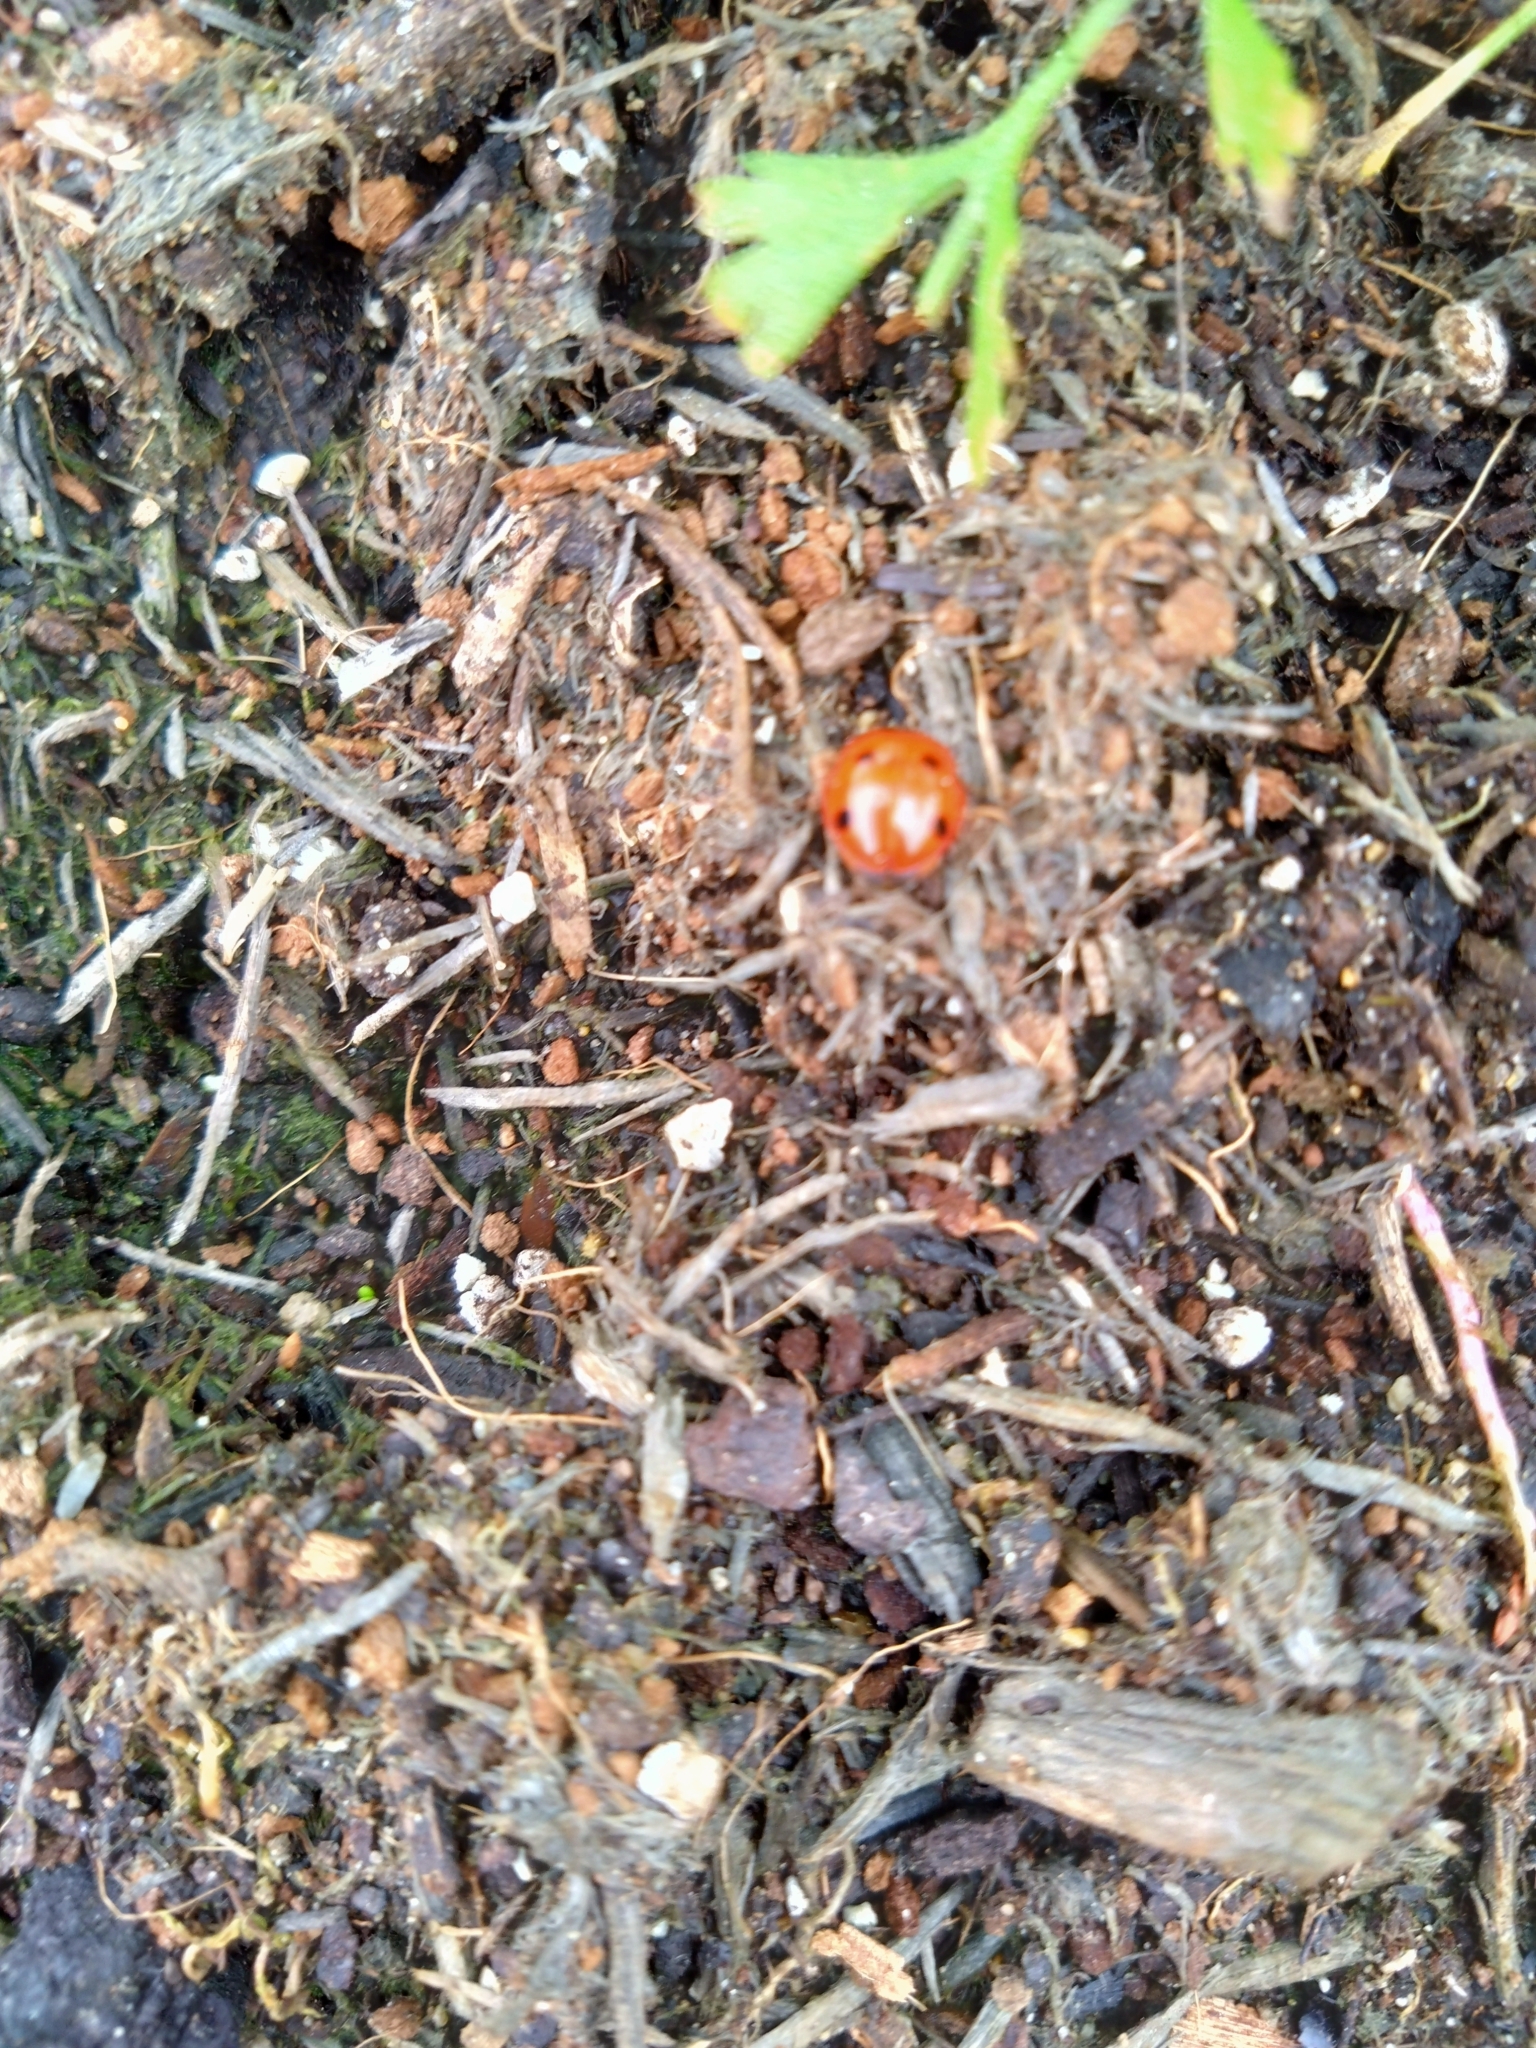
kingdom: Animalia
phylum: Arthropoda
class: Insecta
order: Coleoptera
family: Coccinellidae
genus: Coccinella
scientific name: Coccinella septempunctata
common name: Sevenspotted lady beetle
